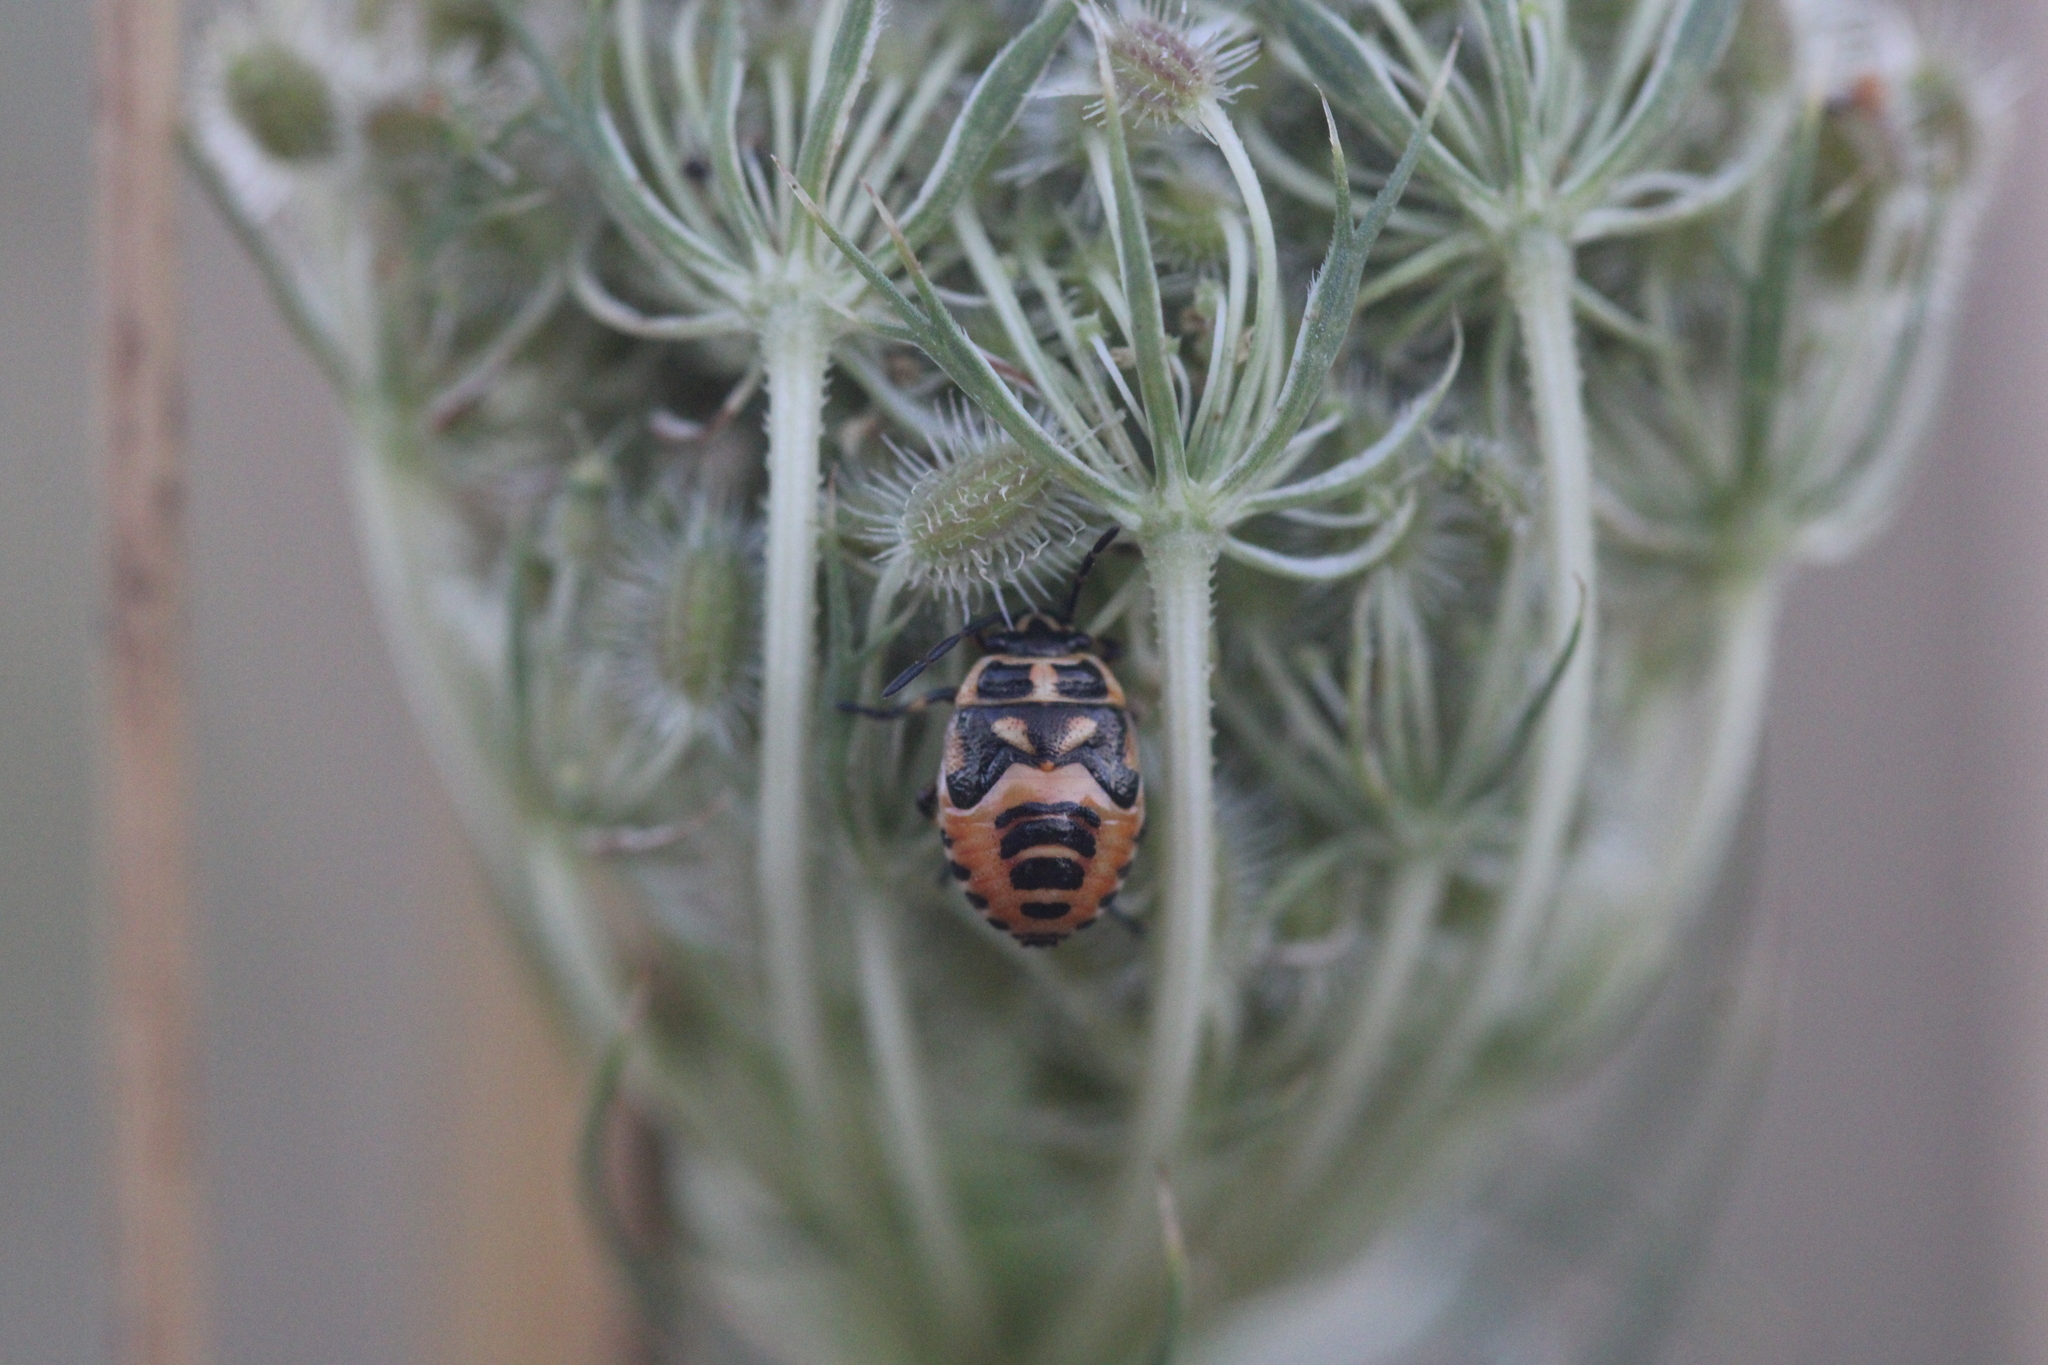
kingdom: Animalia
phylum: Arthropoda
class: Insecta
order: Hemiptera
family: Pentatomidae
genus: Eurydema
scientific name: Eurydema ornata
